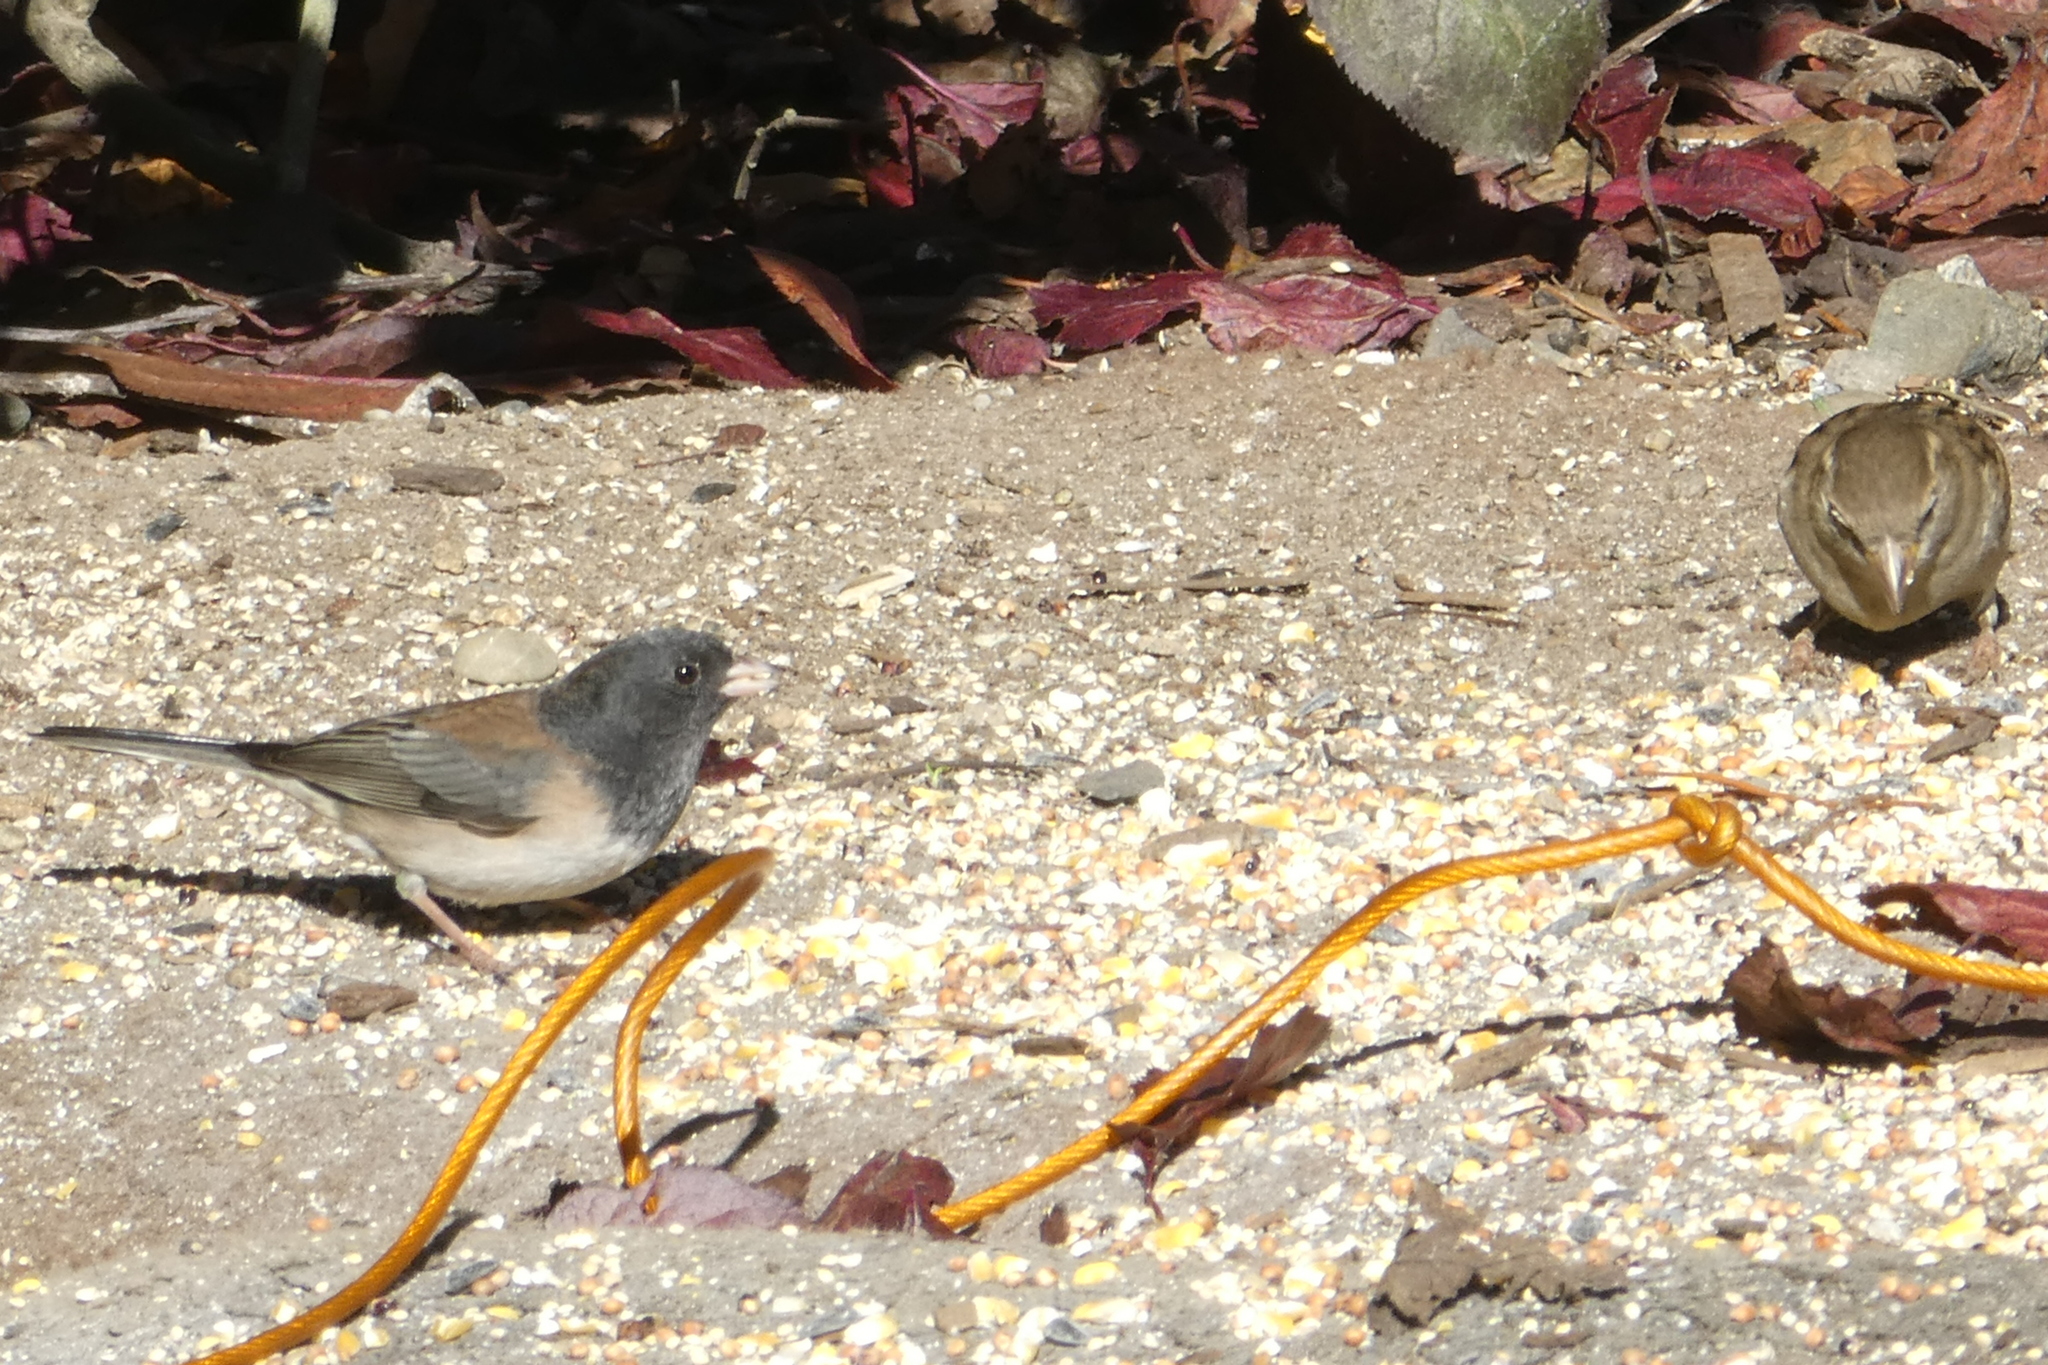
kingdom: Animalia
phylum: Chordata
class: Aves
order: Passeriformes
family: Passerellidae
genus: Junco
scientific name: Junco hyemalis
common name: Dark-eyed junco
